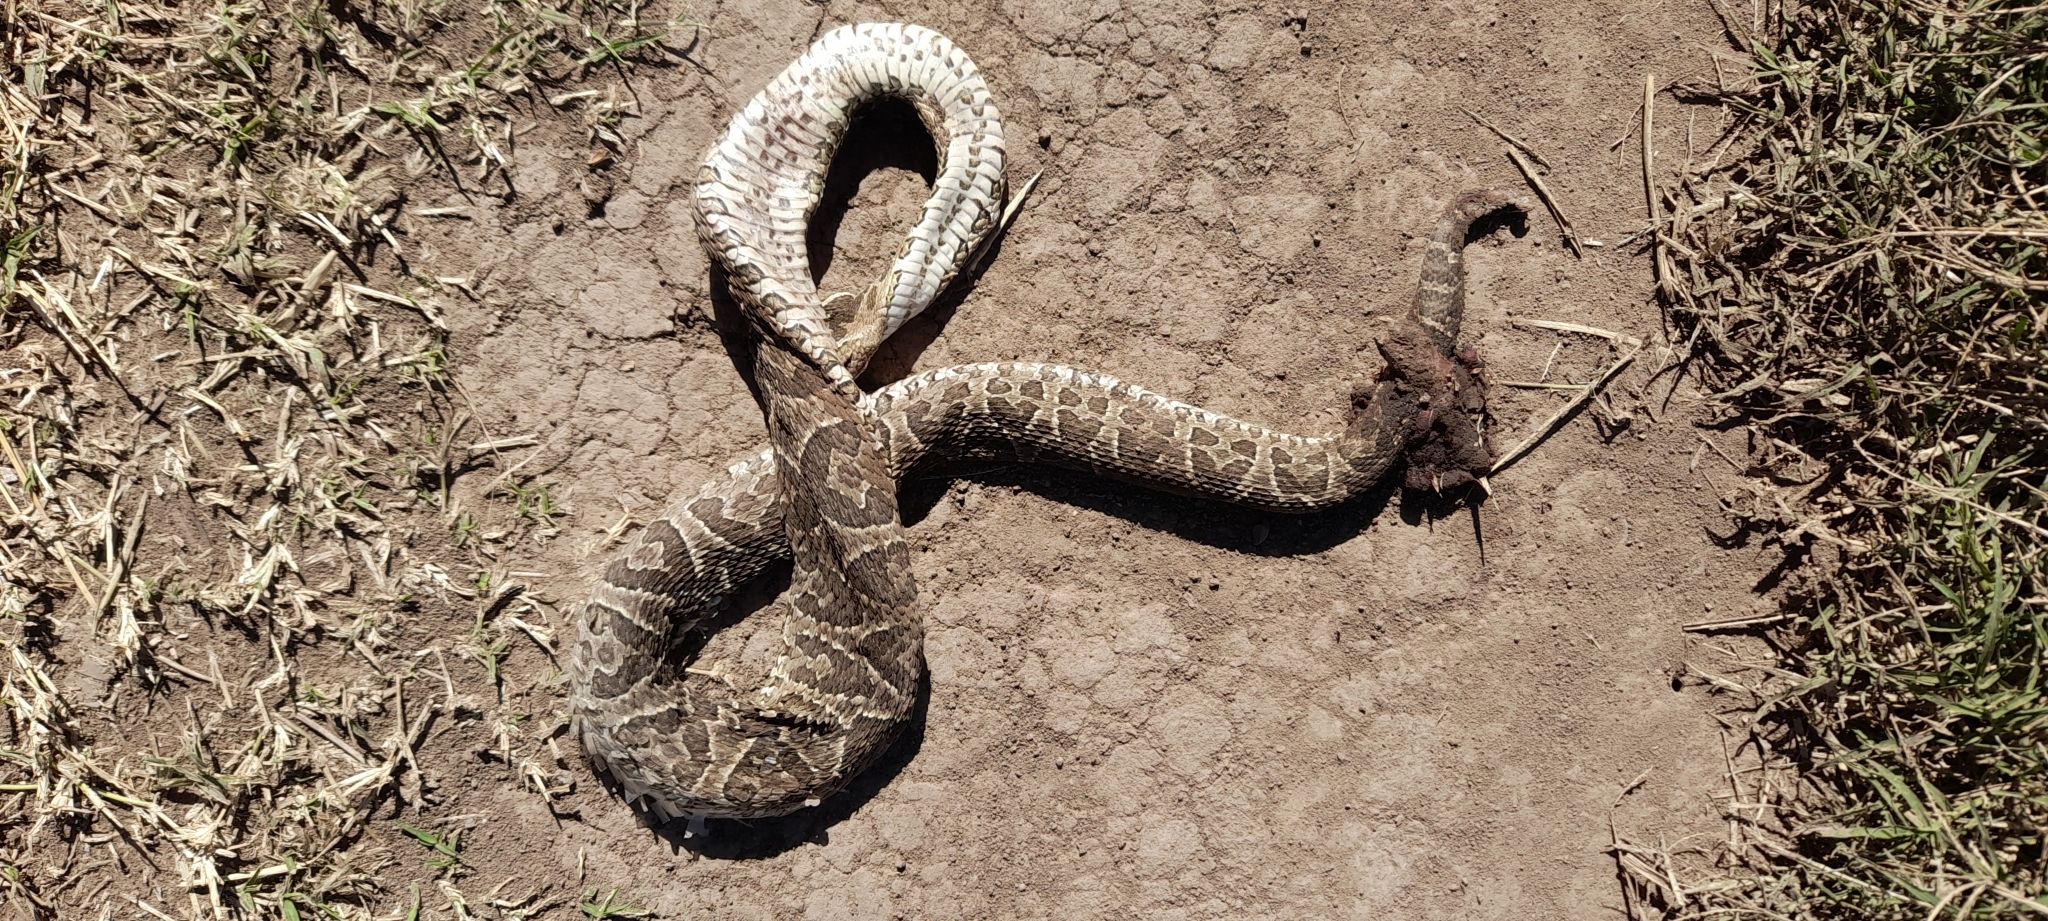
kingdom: Animalia
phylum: Chordata
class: Squamata
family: Viperidae
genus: Bothrops
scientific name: Bothrops alternatus
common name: Urutu
